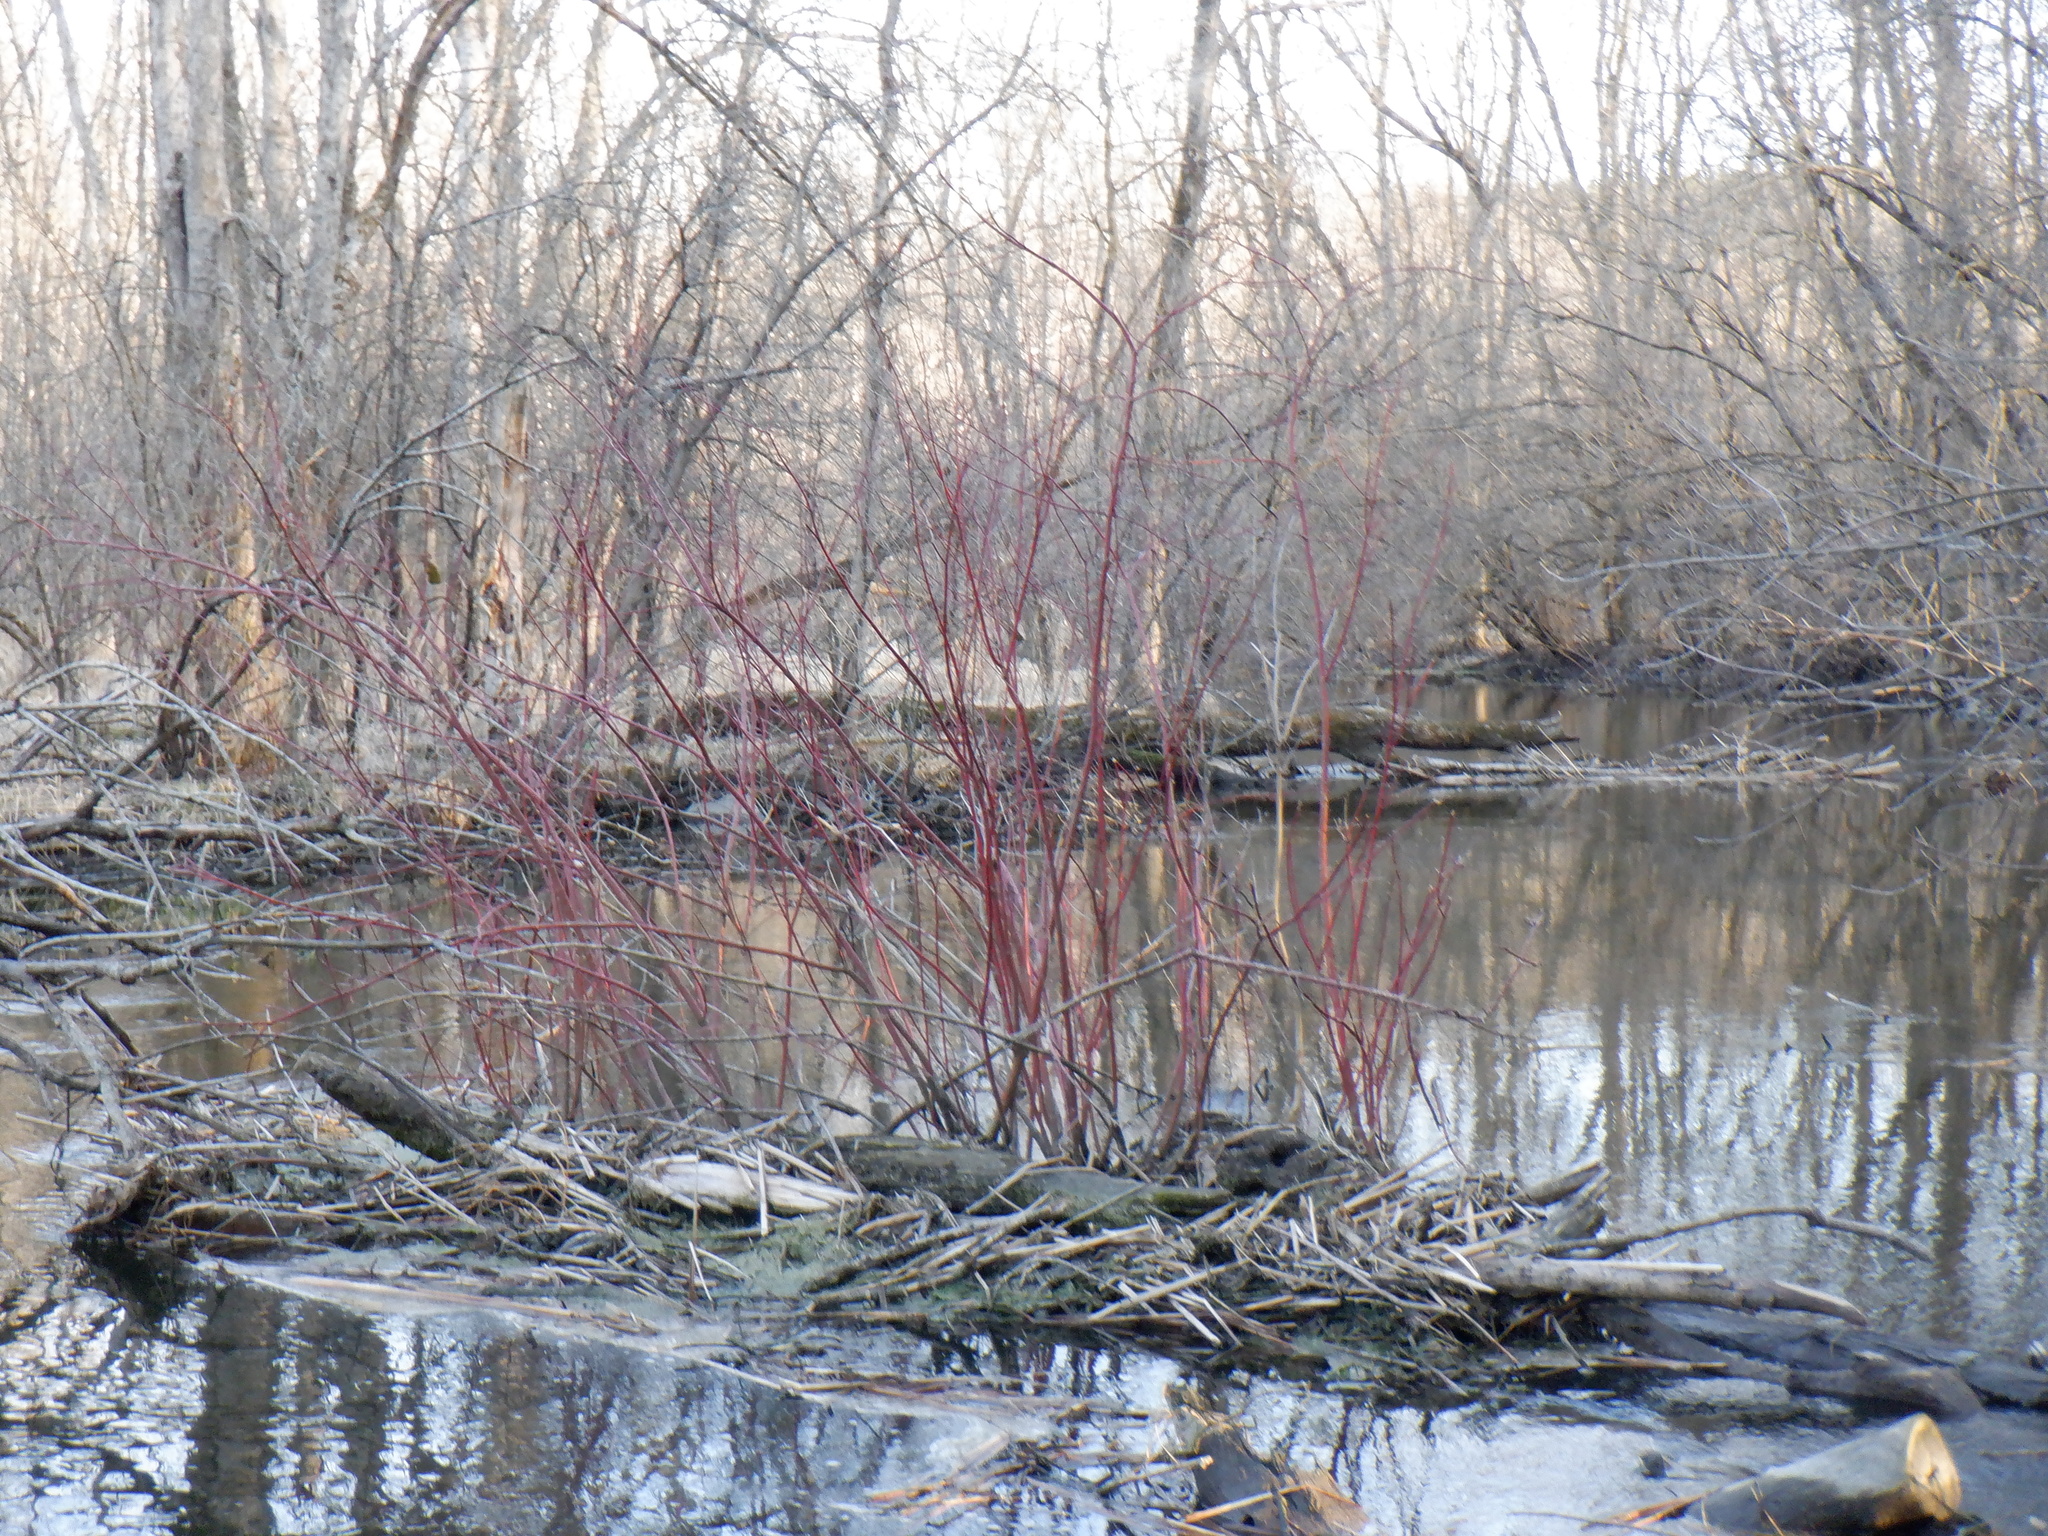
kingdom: Plantae
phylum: Tracheophyta
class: Magnoliopsida
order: Cornales
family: Cornaceae
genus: Cornus
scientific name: Cornus sericea
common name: Red-osier dogwood
